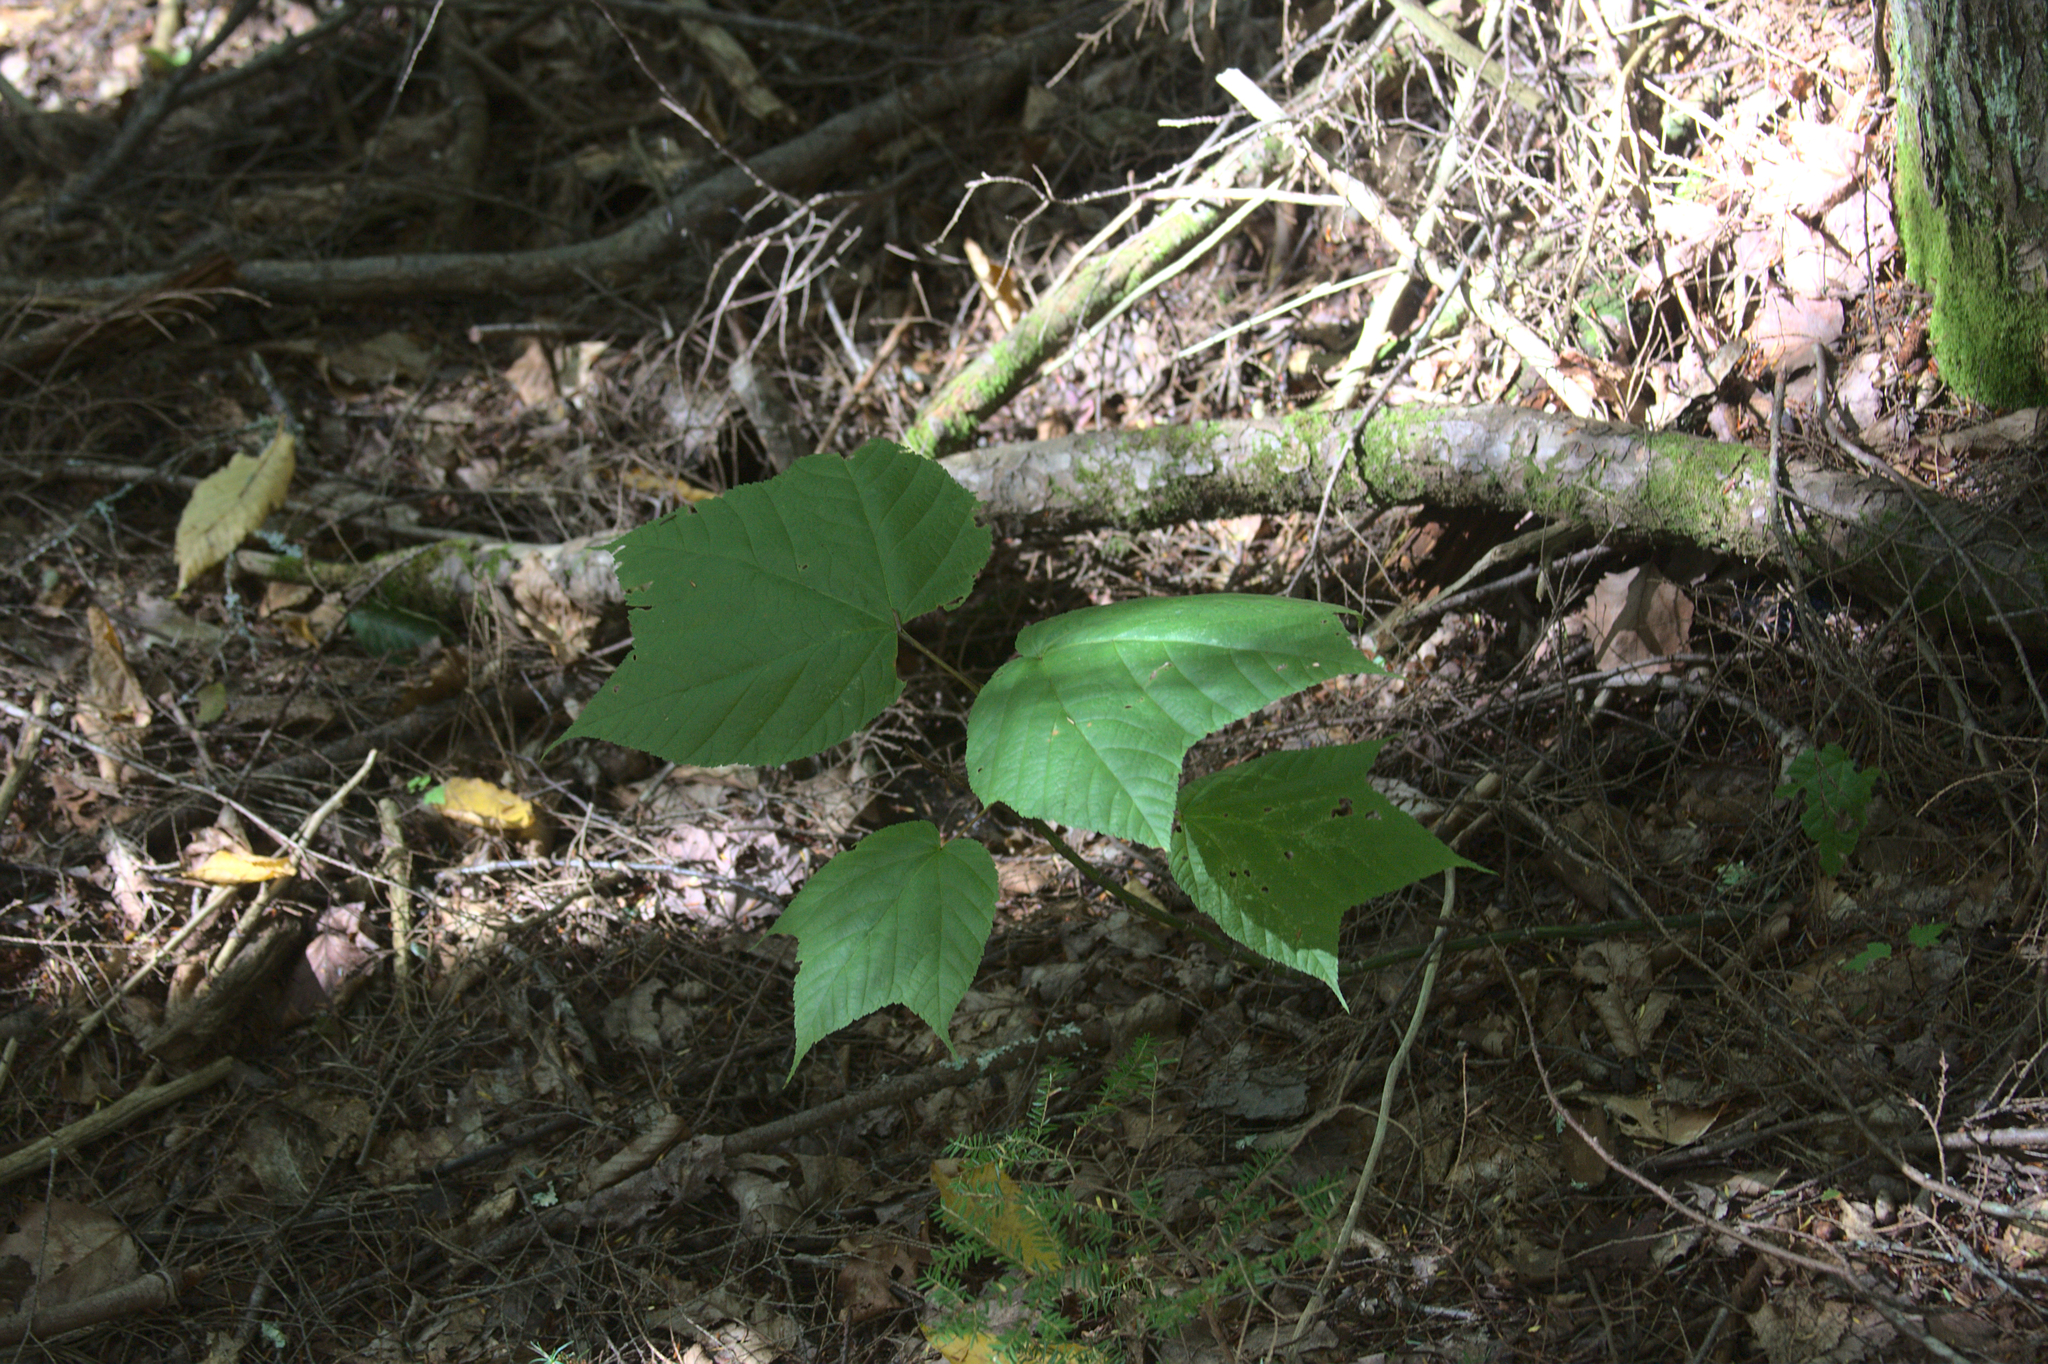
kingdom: Plantae
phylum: Tracheophyta
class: Magnoliopsida
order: Sapindales
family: Sapindaceae
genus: Acer
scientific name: Acer pensylvanicum
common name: Moosewood
